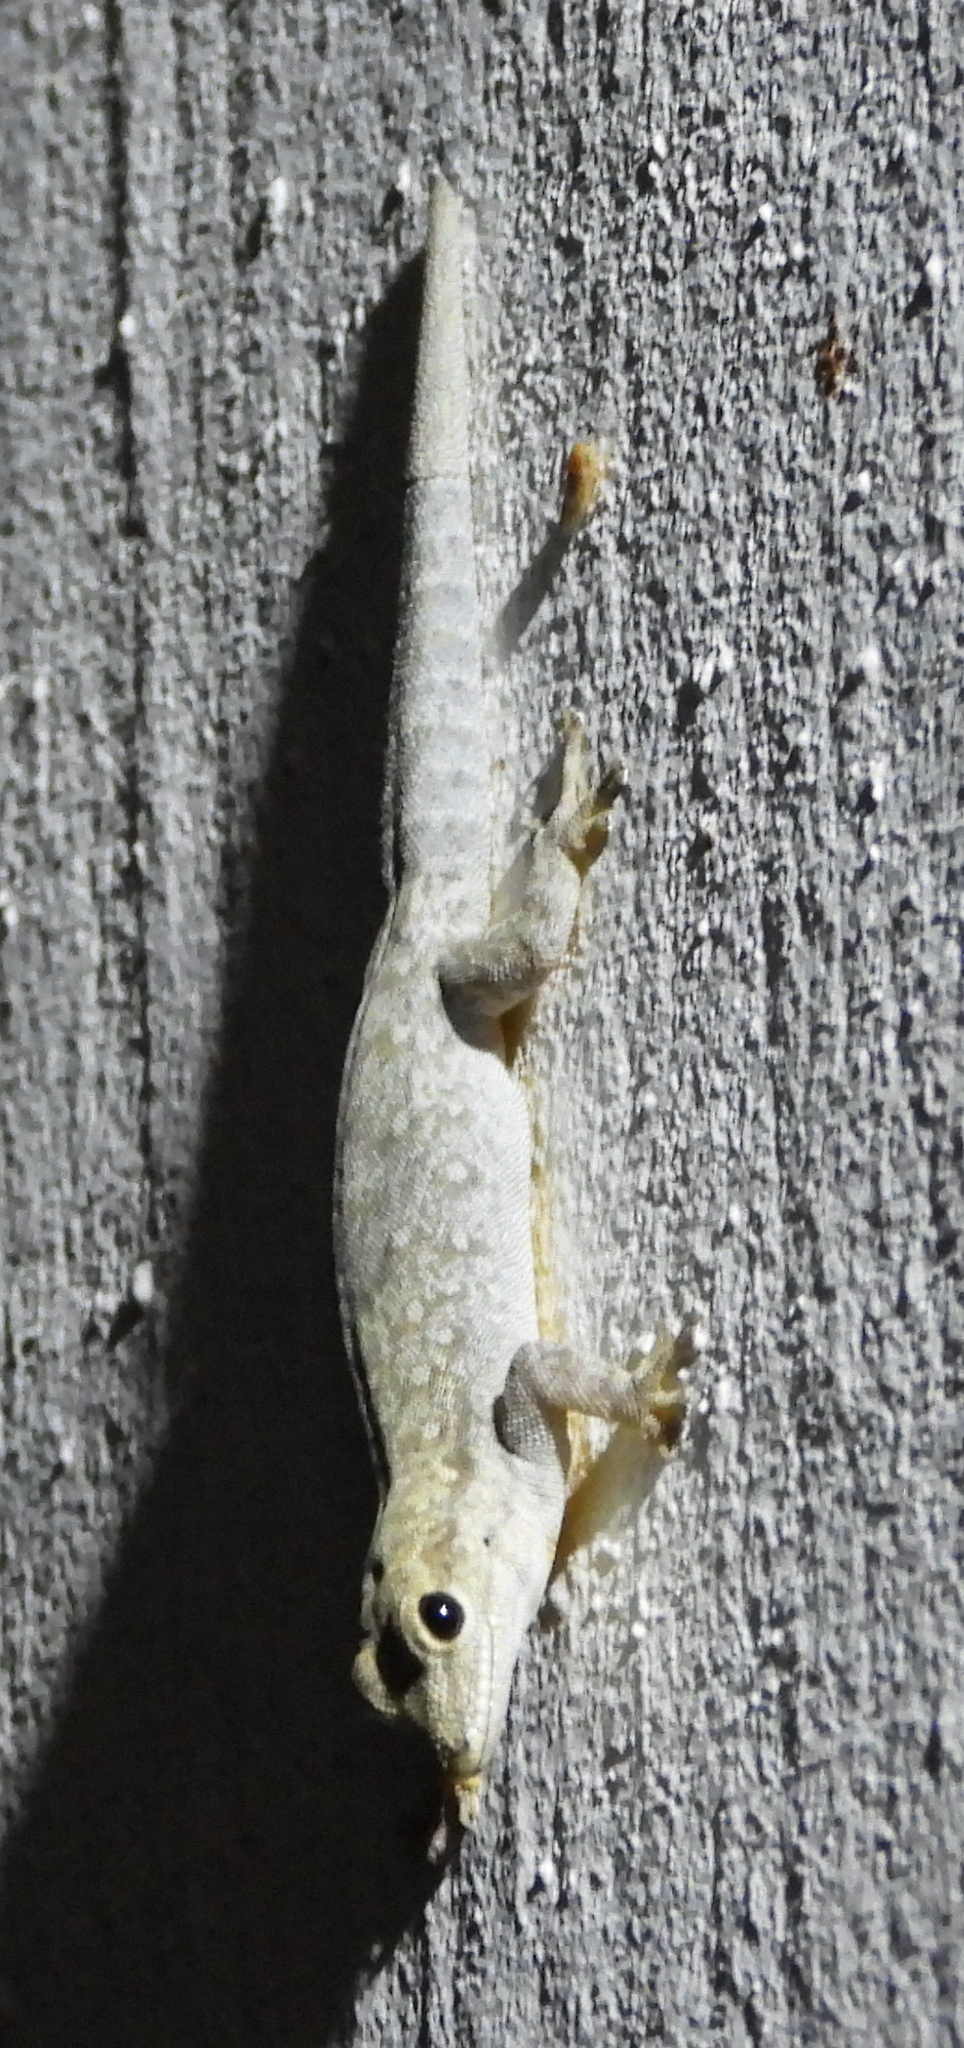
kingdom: Animalia
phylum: Chordata
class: Squamata
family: Gekkonidae
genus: Lygodactylus
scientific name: Lygodactylus chobiensis
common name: Okavango dwarf gecko
